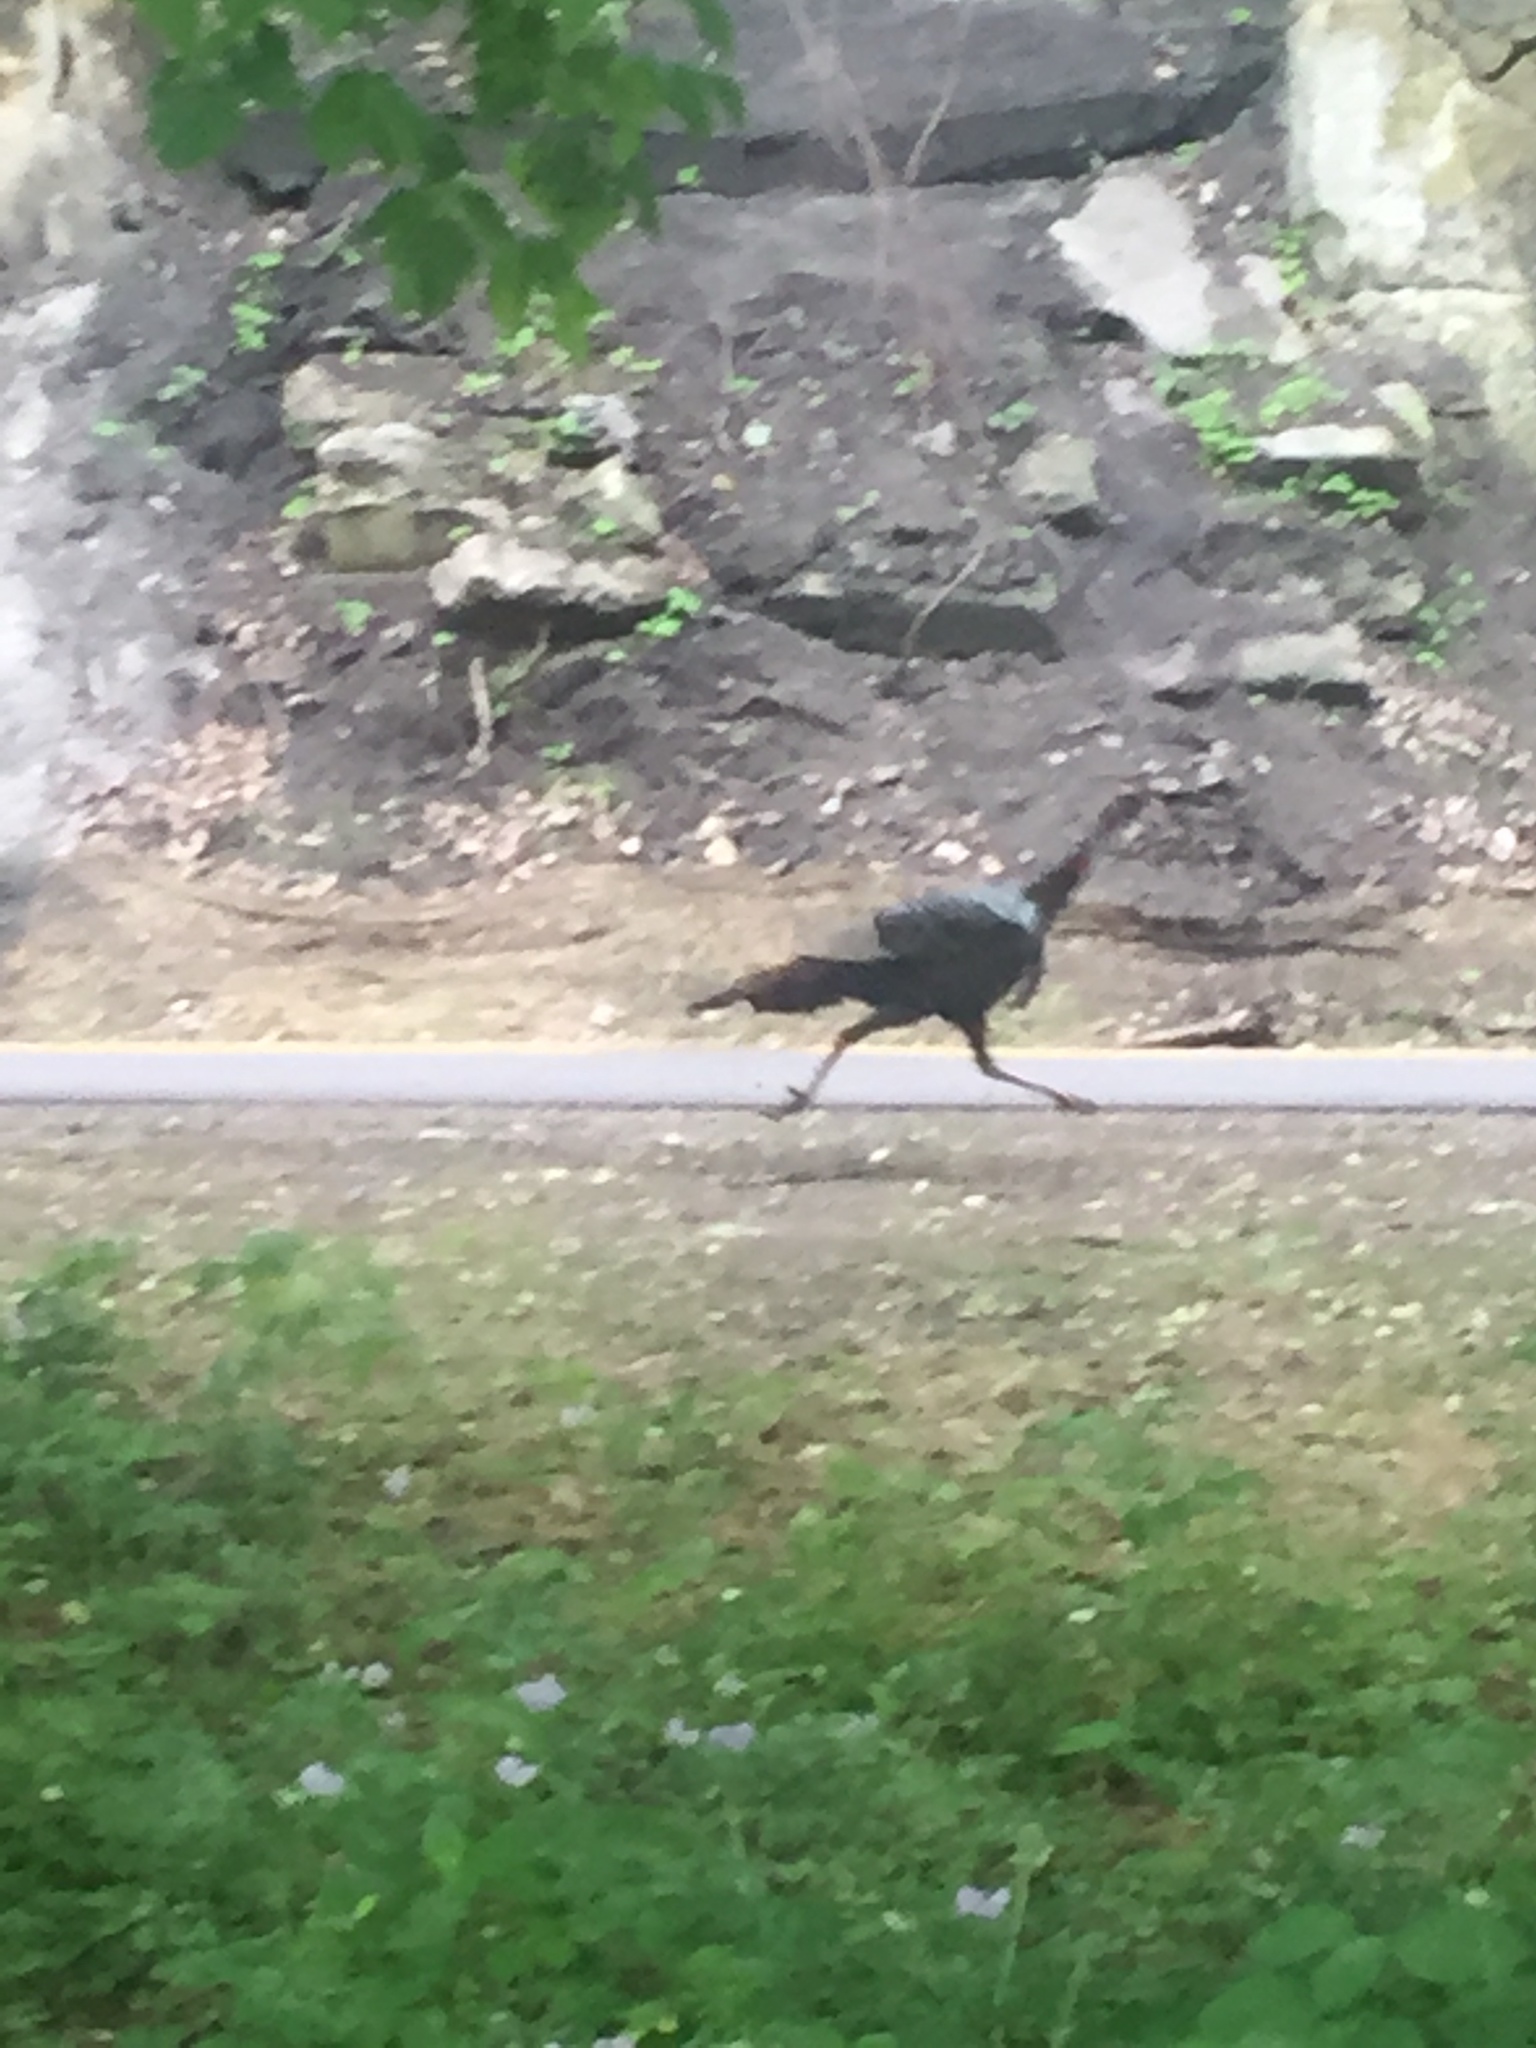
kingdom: Animalia
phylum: Chordata
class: Aves
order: Galliformes
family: Phasianidae
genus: Meleagris
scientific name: Meleagris gallopavo
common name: Wild turkey
